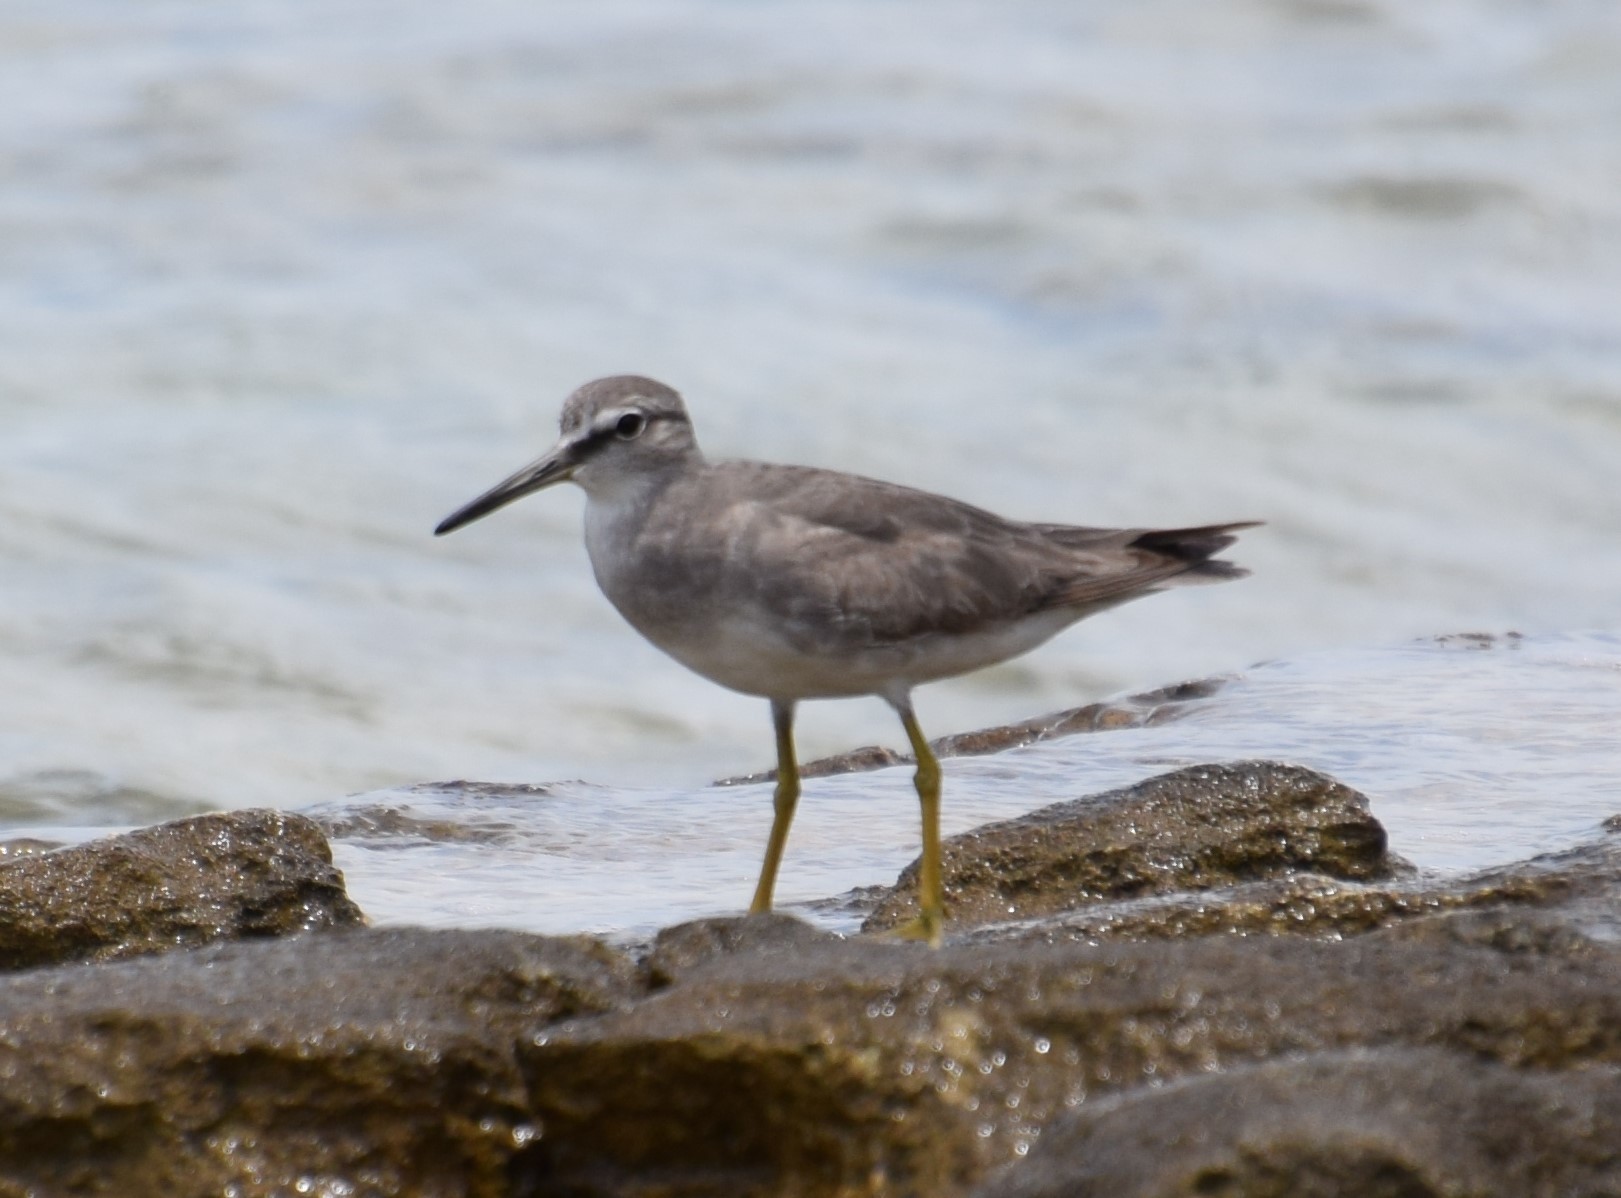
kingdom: Animalia
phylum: Chordata
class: Aves
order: Charadriiformes
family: Scolopacidae
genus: Tringa
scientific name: Tringa brevipes
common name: Grey-tailed tattler
